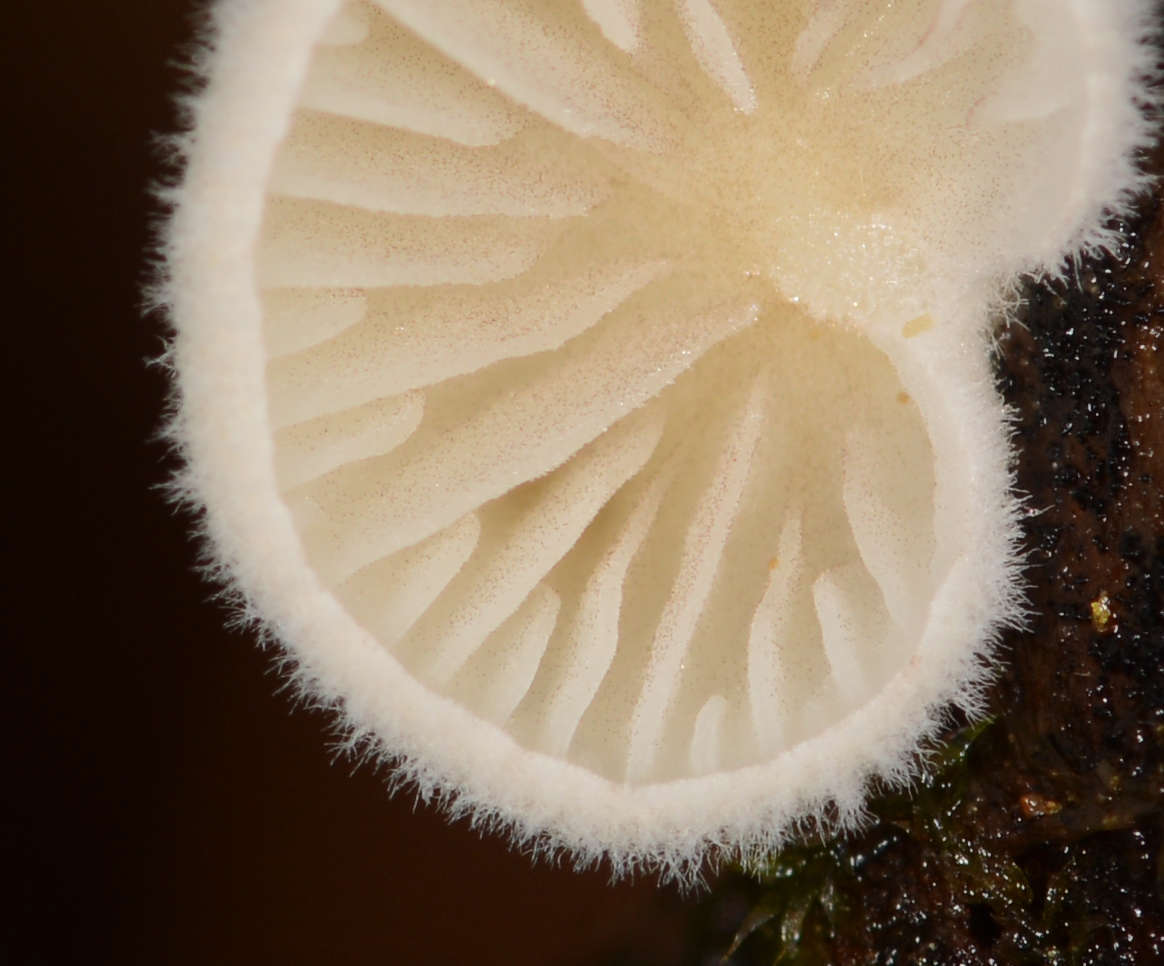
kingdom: Fungi
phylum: Basidiomycota
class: Agaricomycetes
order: Agaricales
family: Entolomataceae
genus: Clitopilus
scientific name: Clitopilus hobsonii
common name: Miller's oysterling
